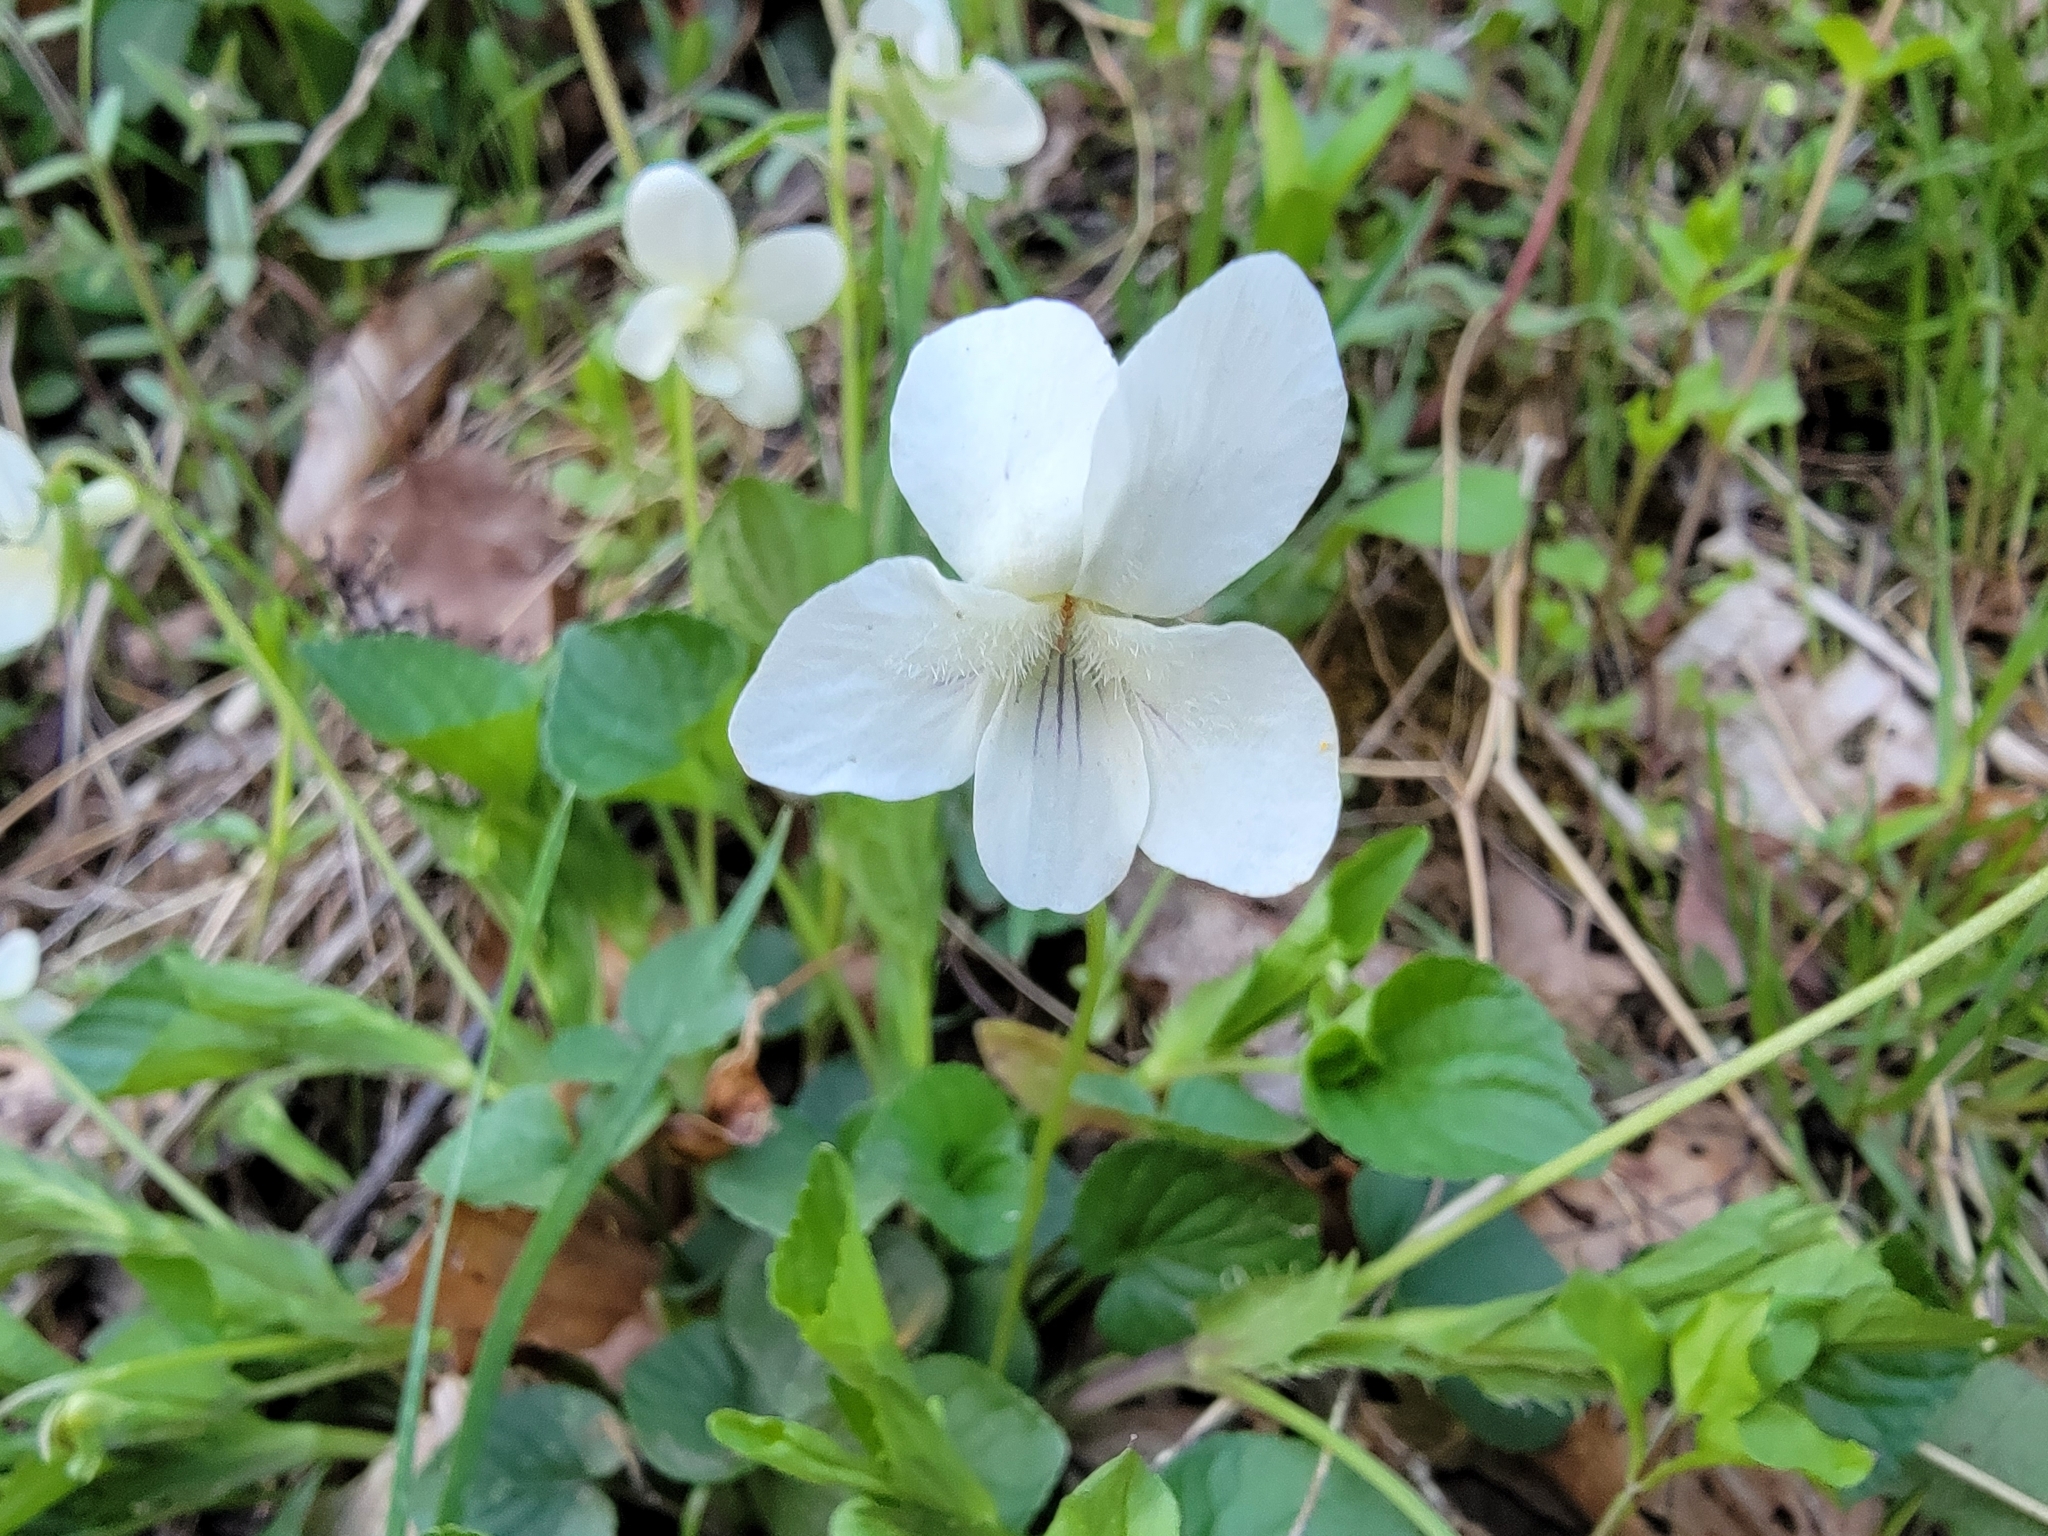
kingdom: Plantae
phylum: Tracheophyta
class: Magnoliopsida
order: Malpighiales
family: Violaceae
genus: Viola
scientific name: Viola striata
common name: Cream violet
